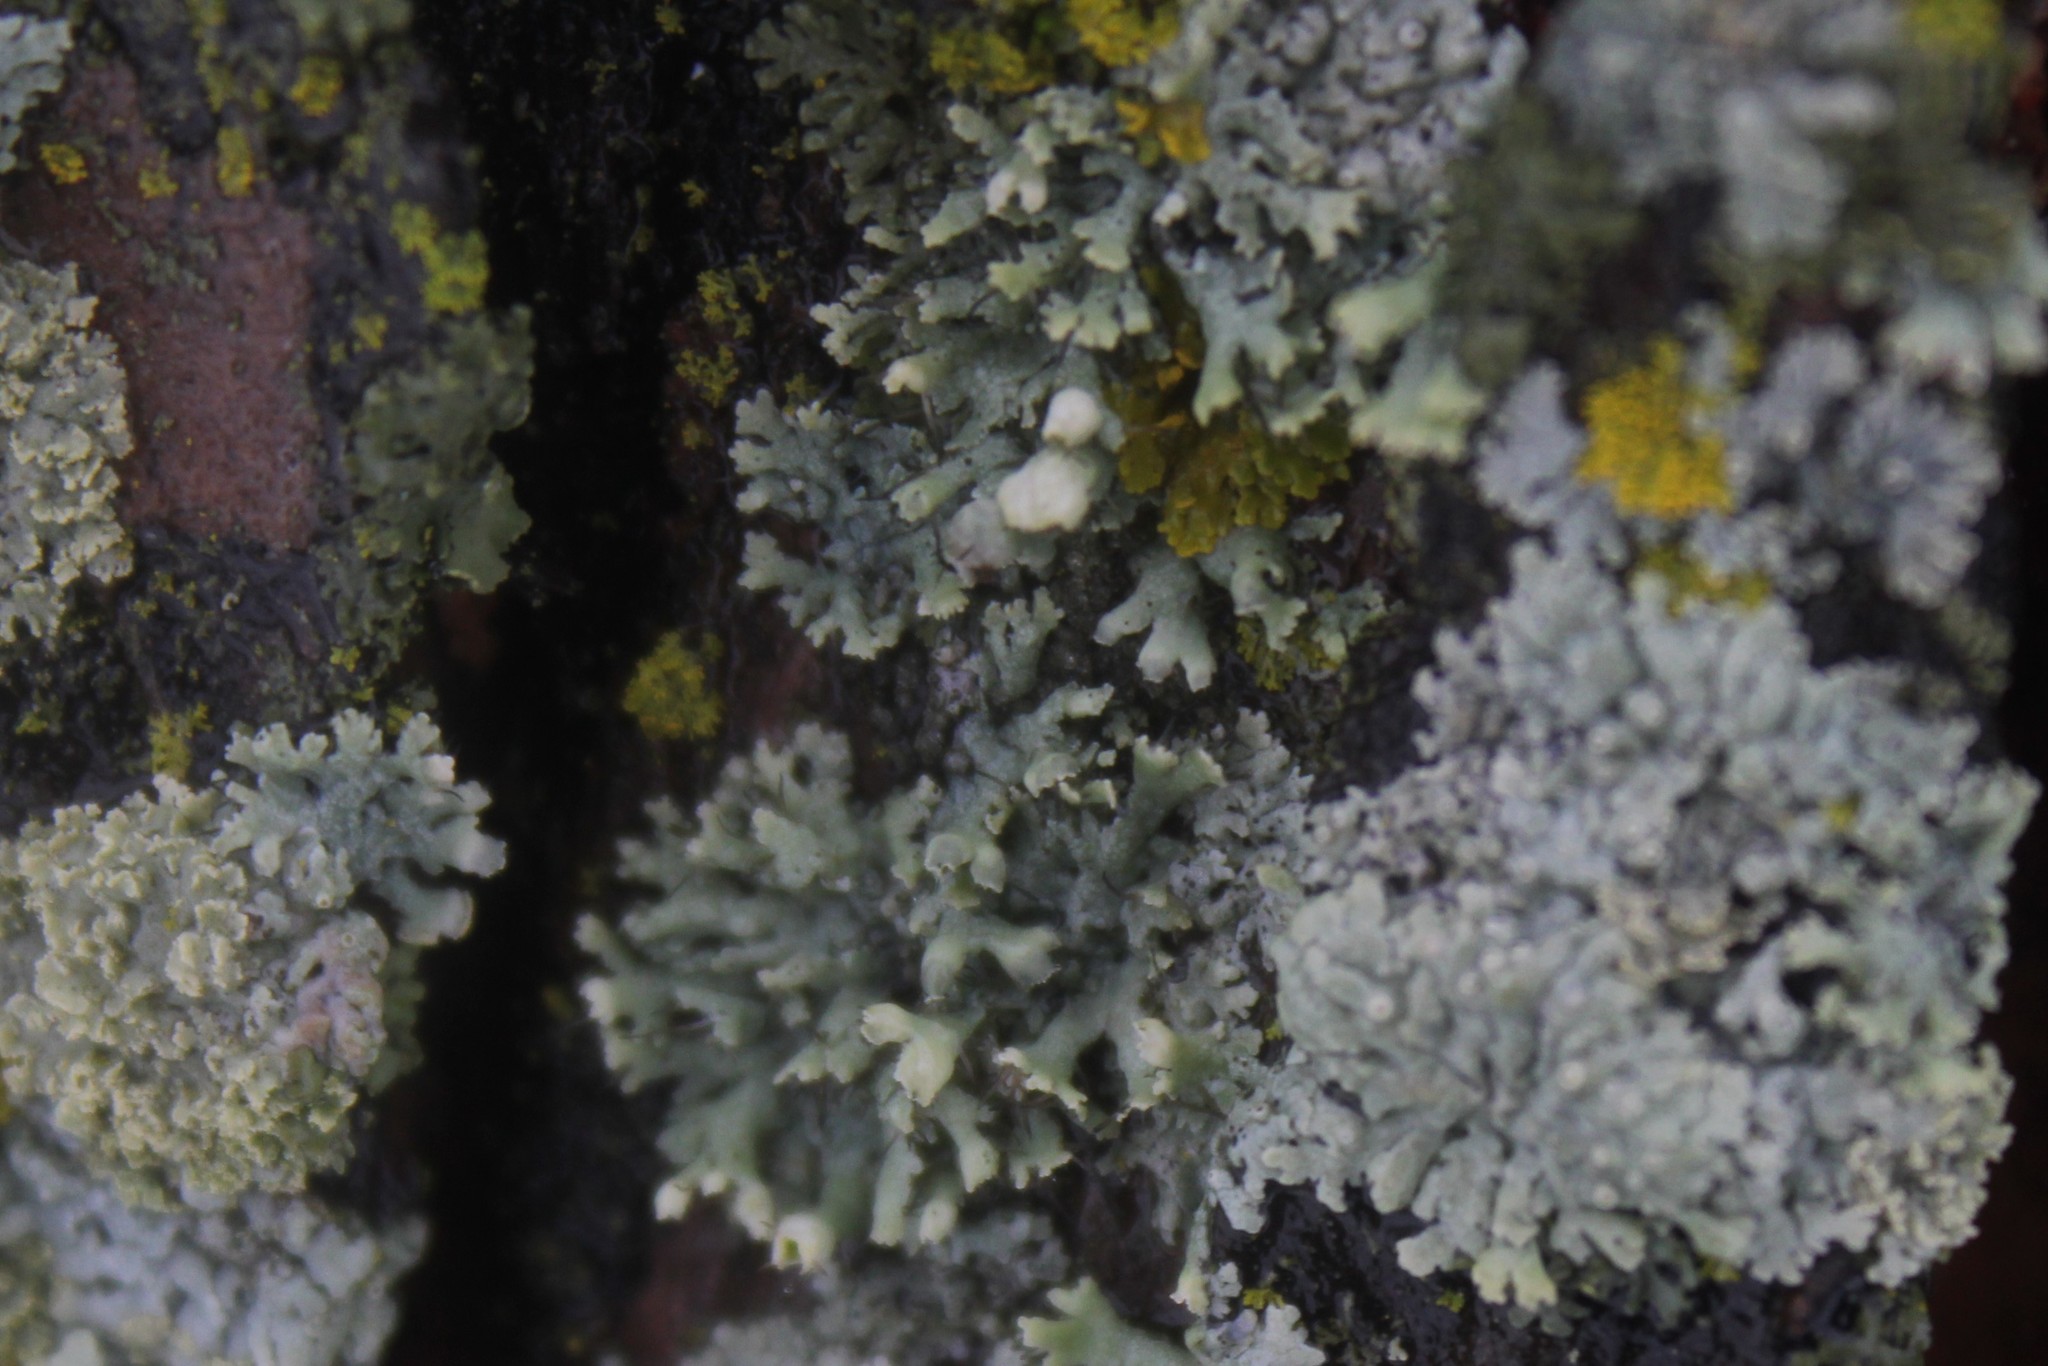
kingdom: Fungi
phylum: Ascomycota
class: Lecanoromycetes
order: Caliciales
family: Physciaceae
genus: Physcia
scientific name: Physcia adscendens
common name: Hooded rosette lichen
